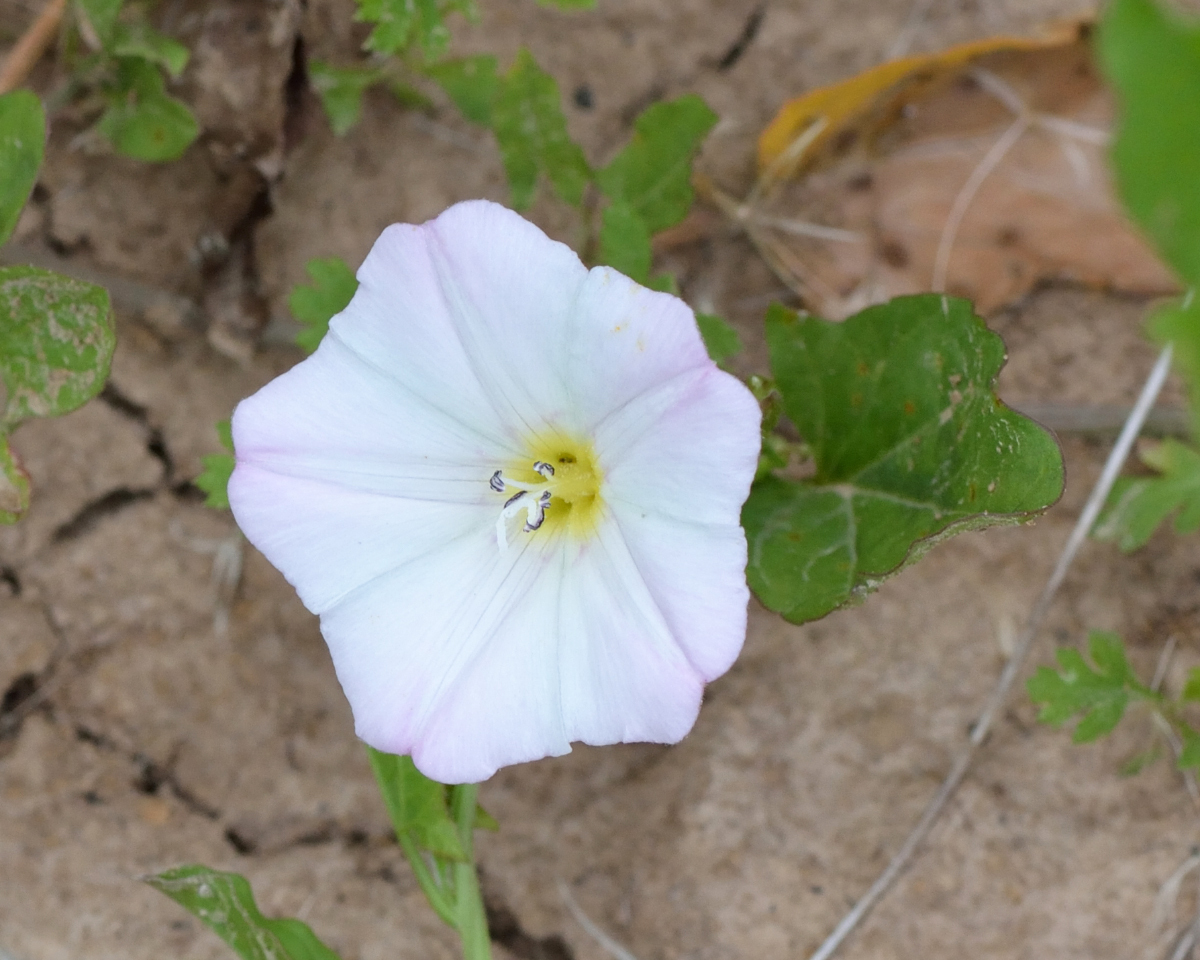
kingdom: Plantae
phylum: Tracheophyta
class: Magnoliopsida
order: Solanales
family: Convolvulaceae
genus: Convolvulus
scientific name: Convolvulus arvensis
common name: Field bindweed
